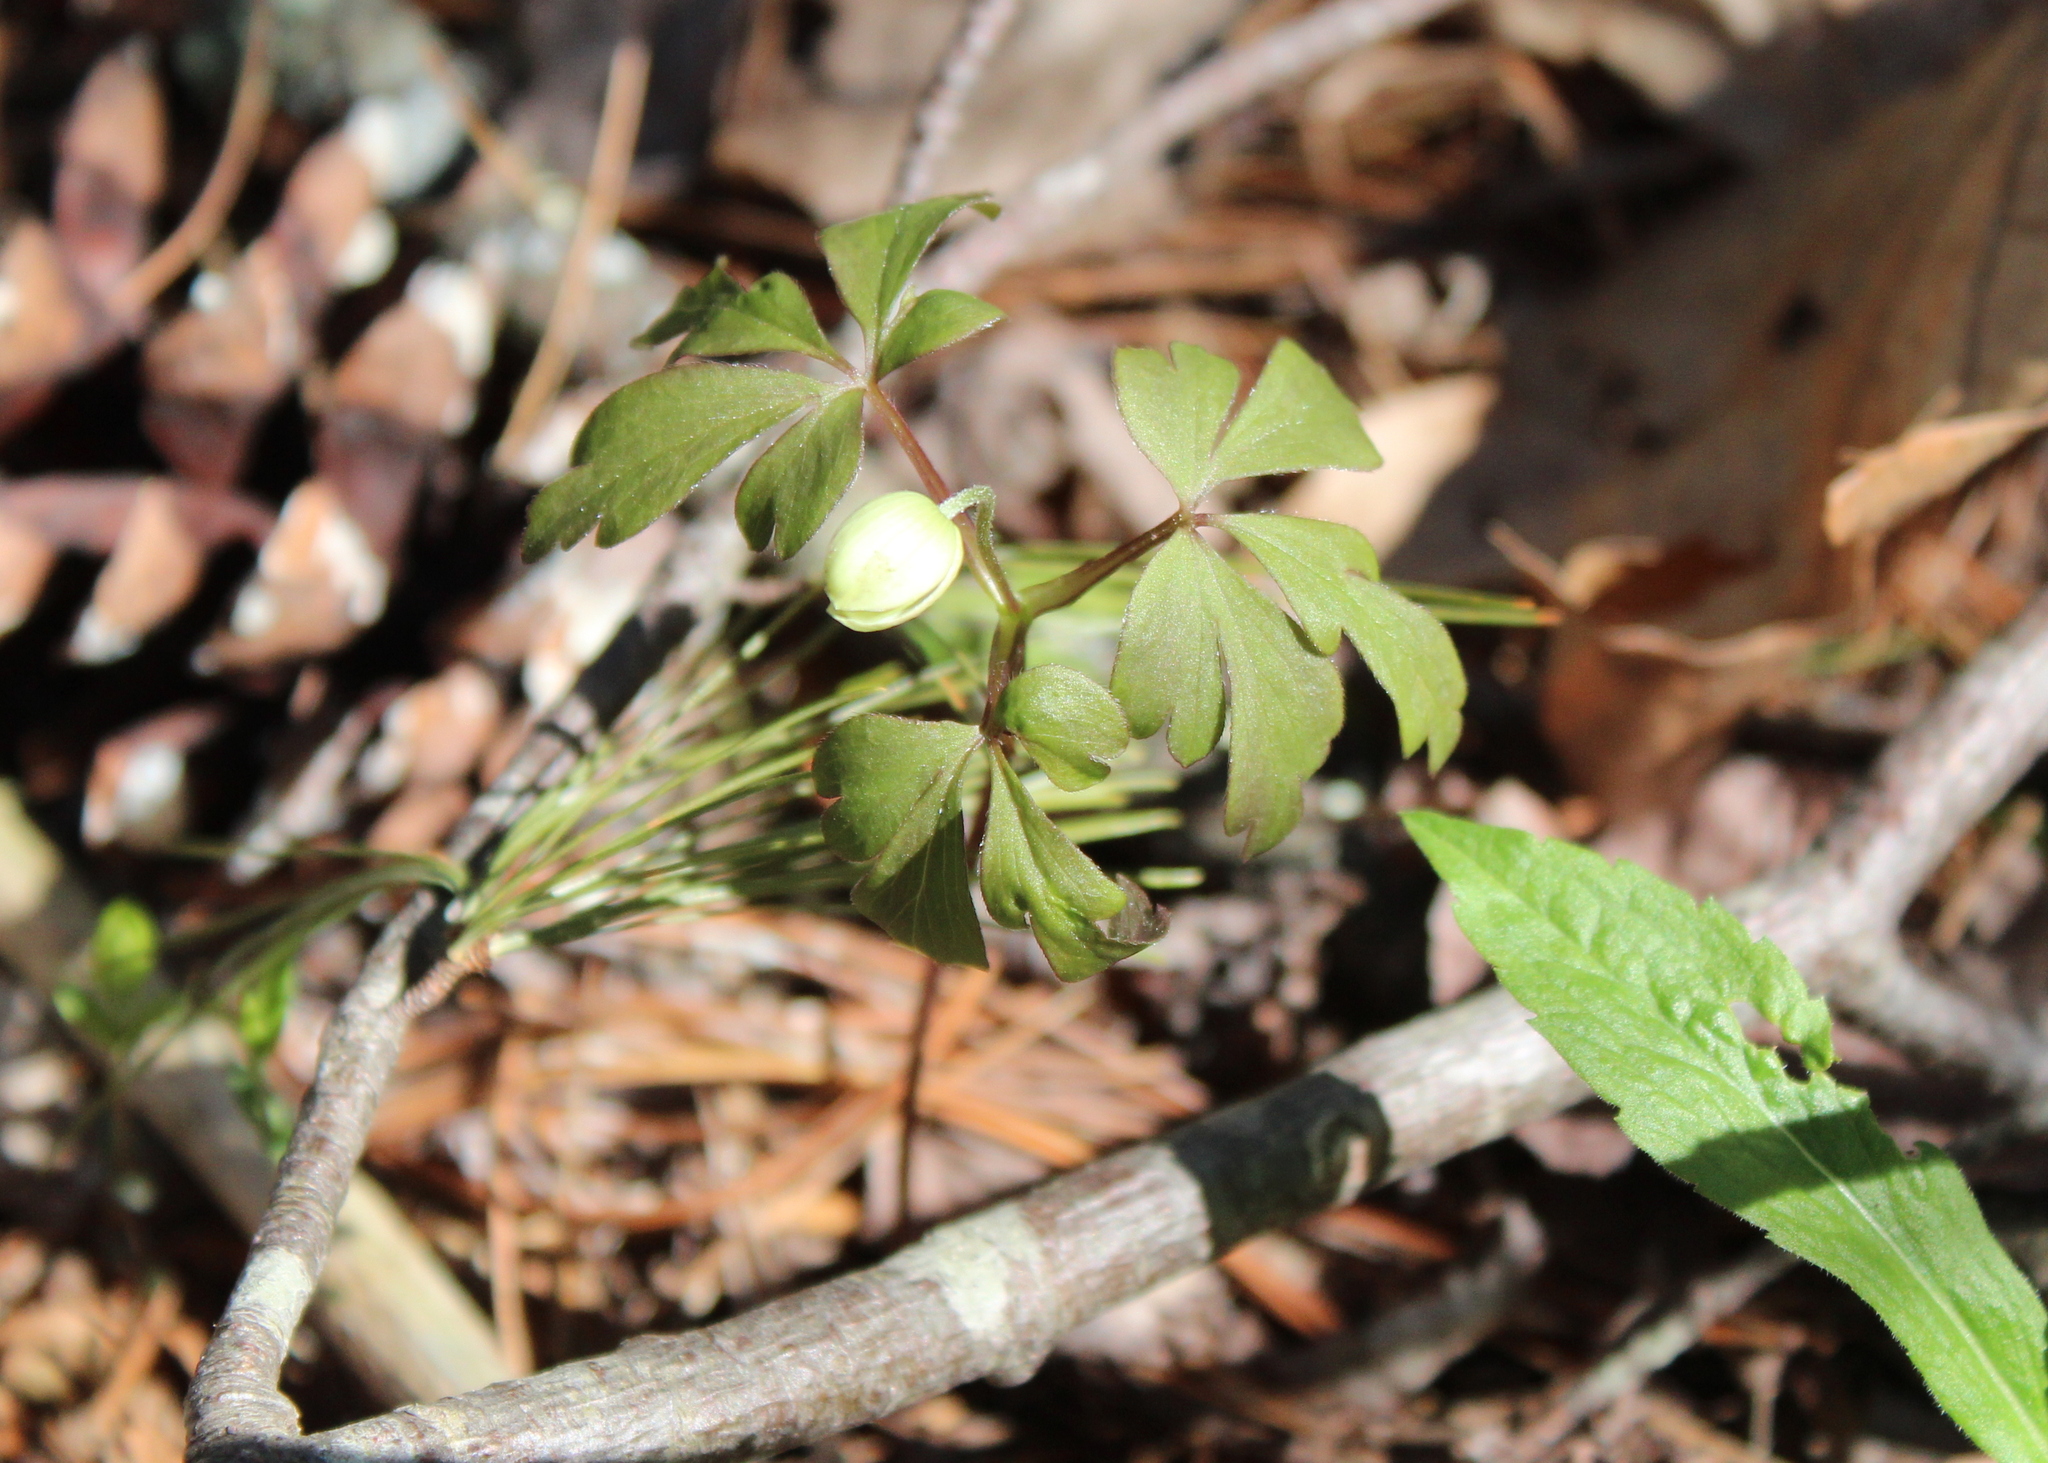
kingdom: Plantae
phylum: Tracheophyta
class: Magnoliopsida
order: Ranunculales
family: Ranunculaceae
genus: Anemone
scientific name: Anemone quinquefolia
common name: Wood anemone
